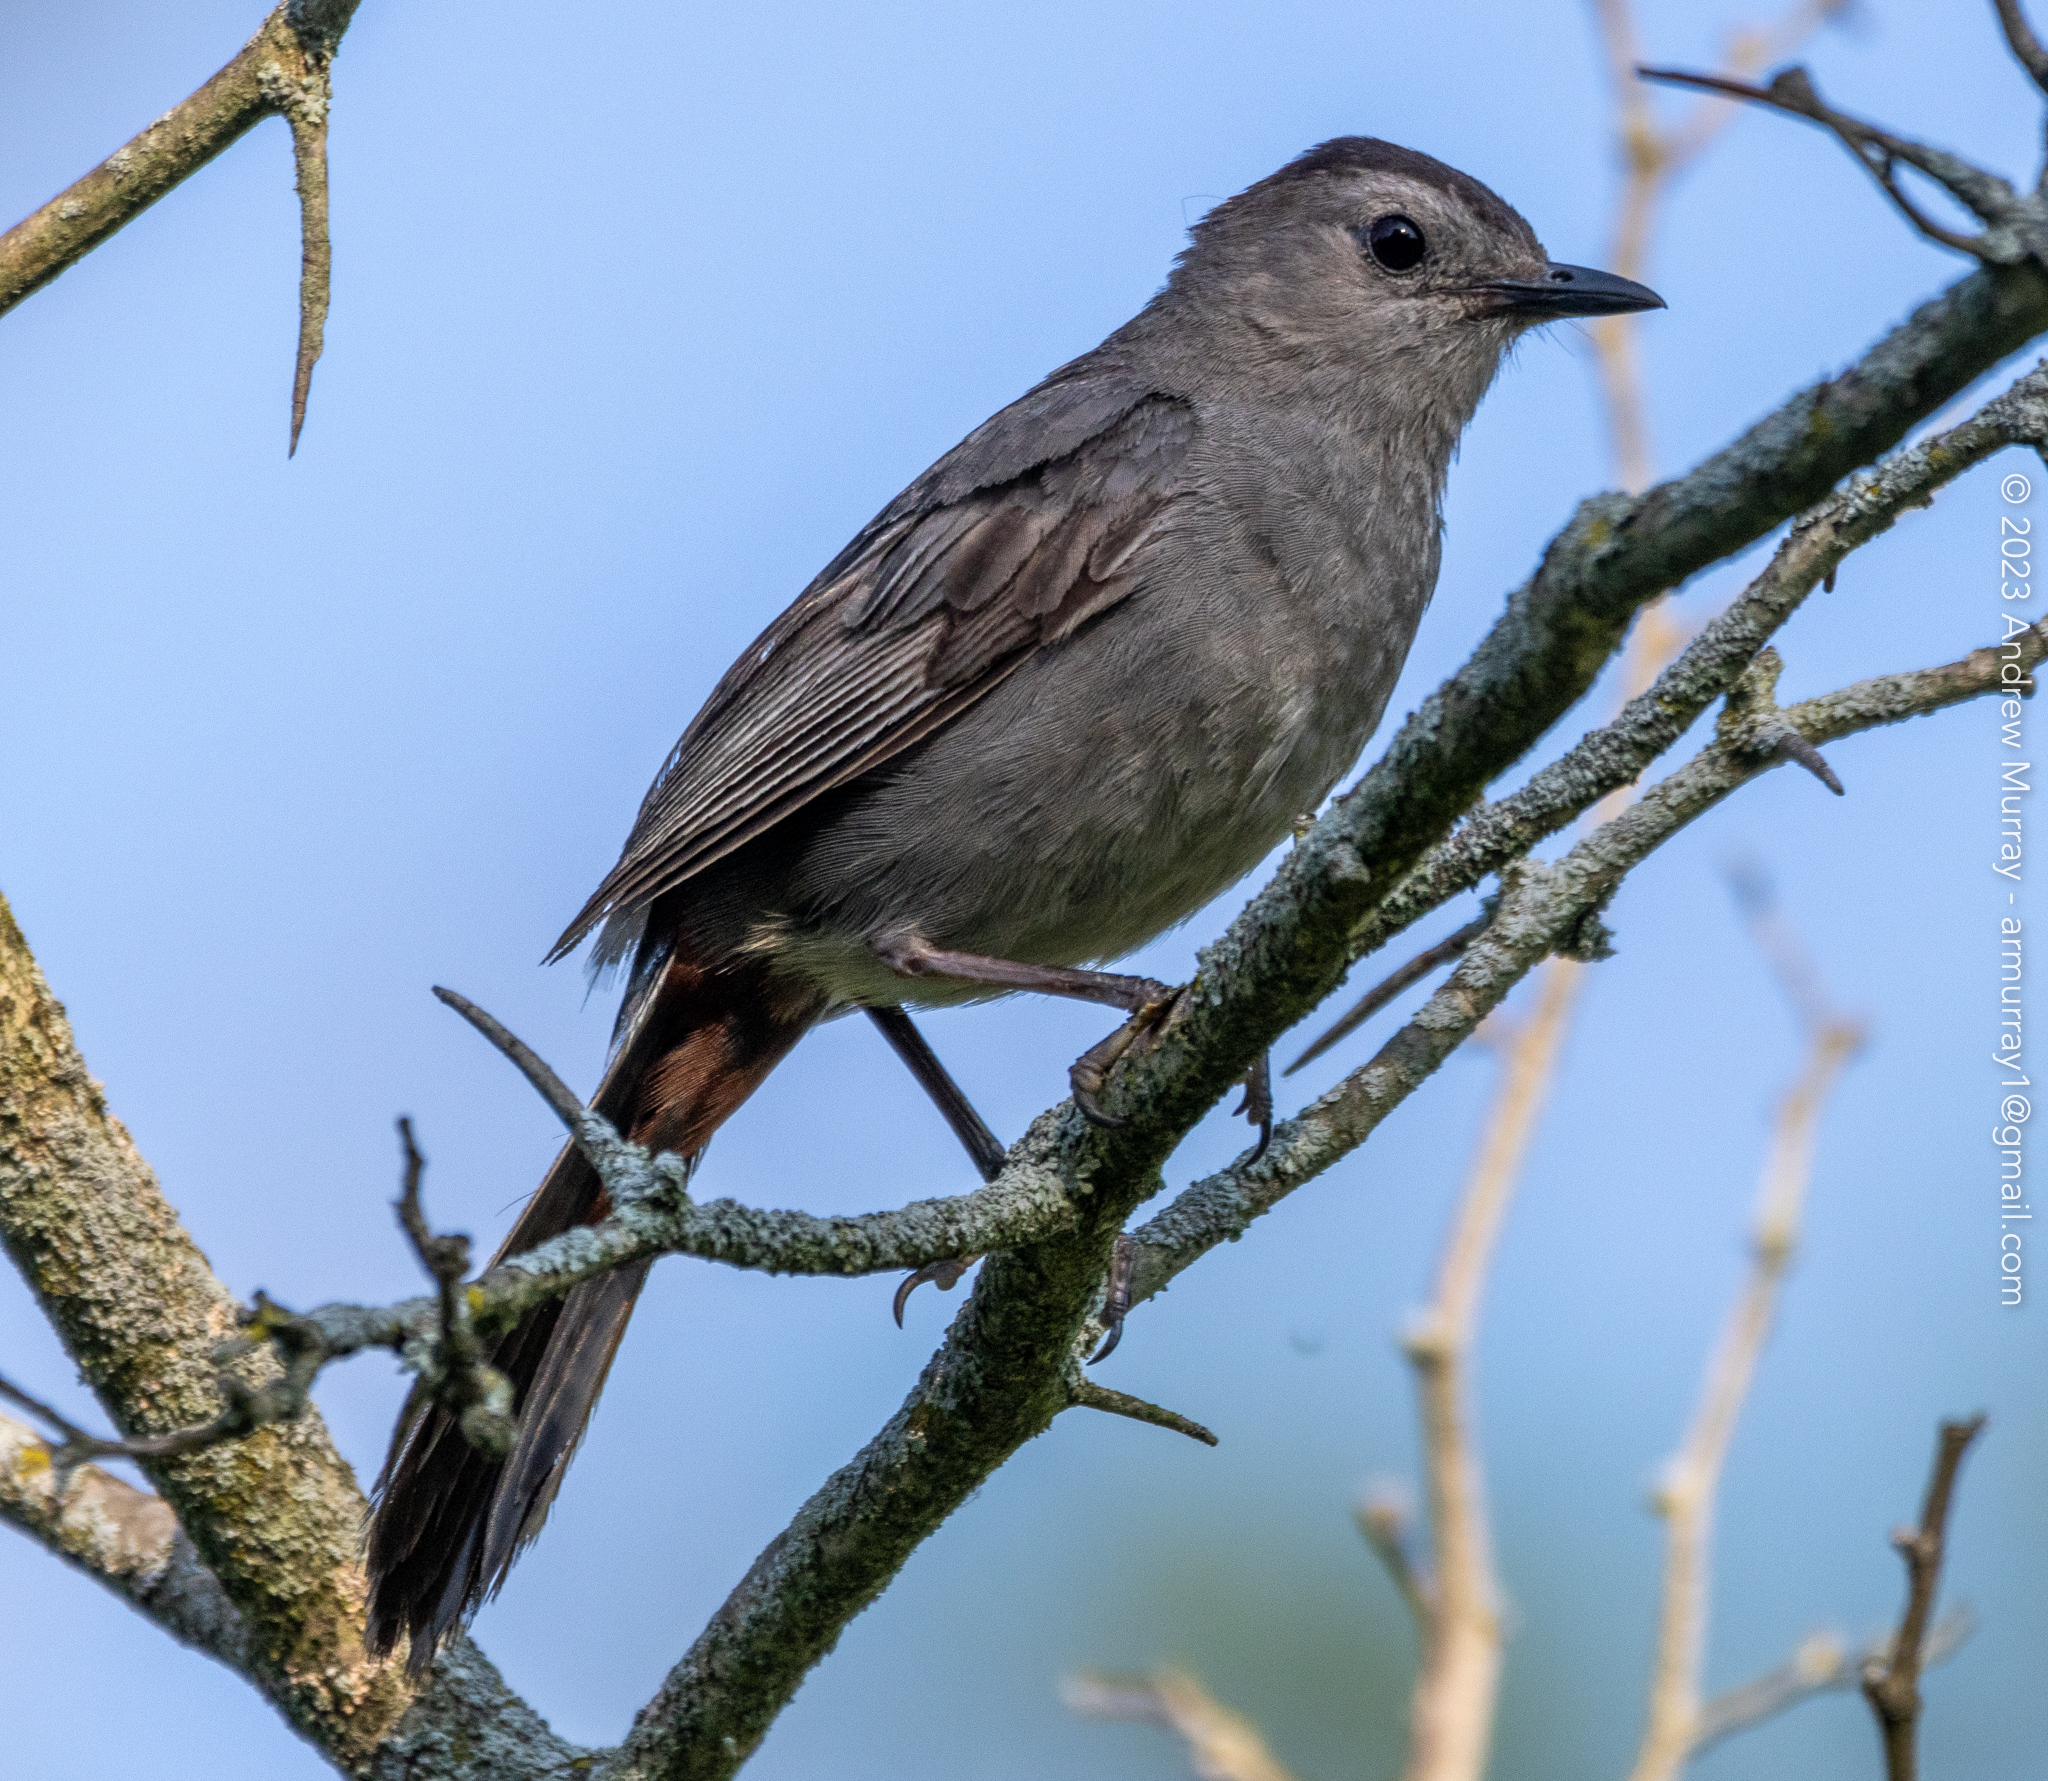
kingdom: Animalia
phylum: Chordata
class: Aves
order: Passeriformes
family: Mimidae
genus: Dumetella
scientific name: Dumetella carolinensis
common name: Gray catbird
